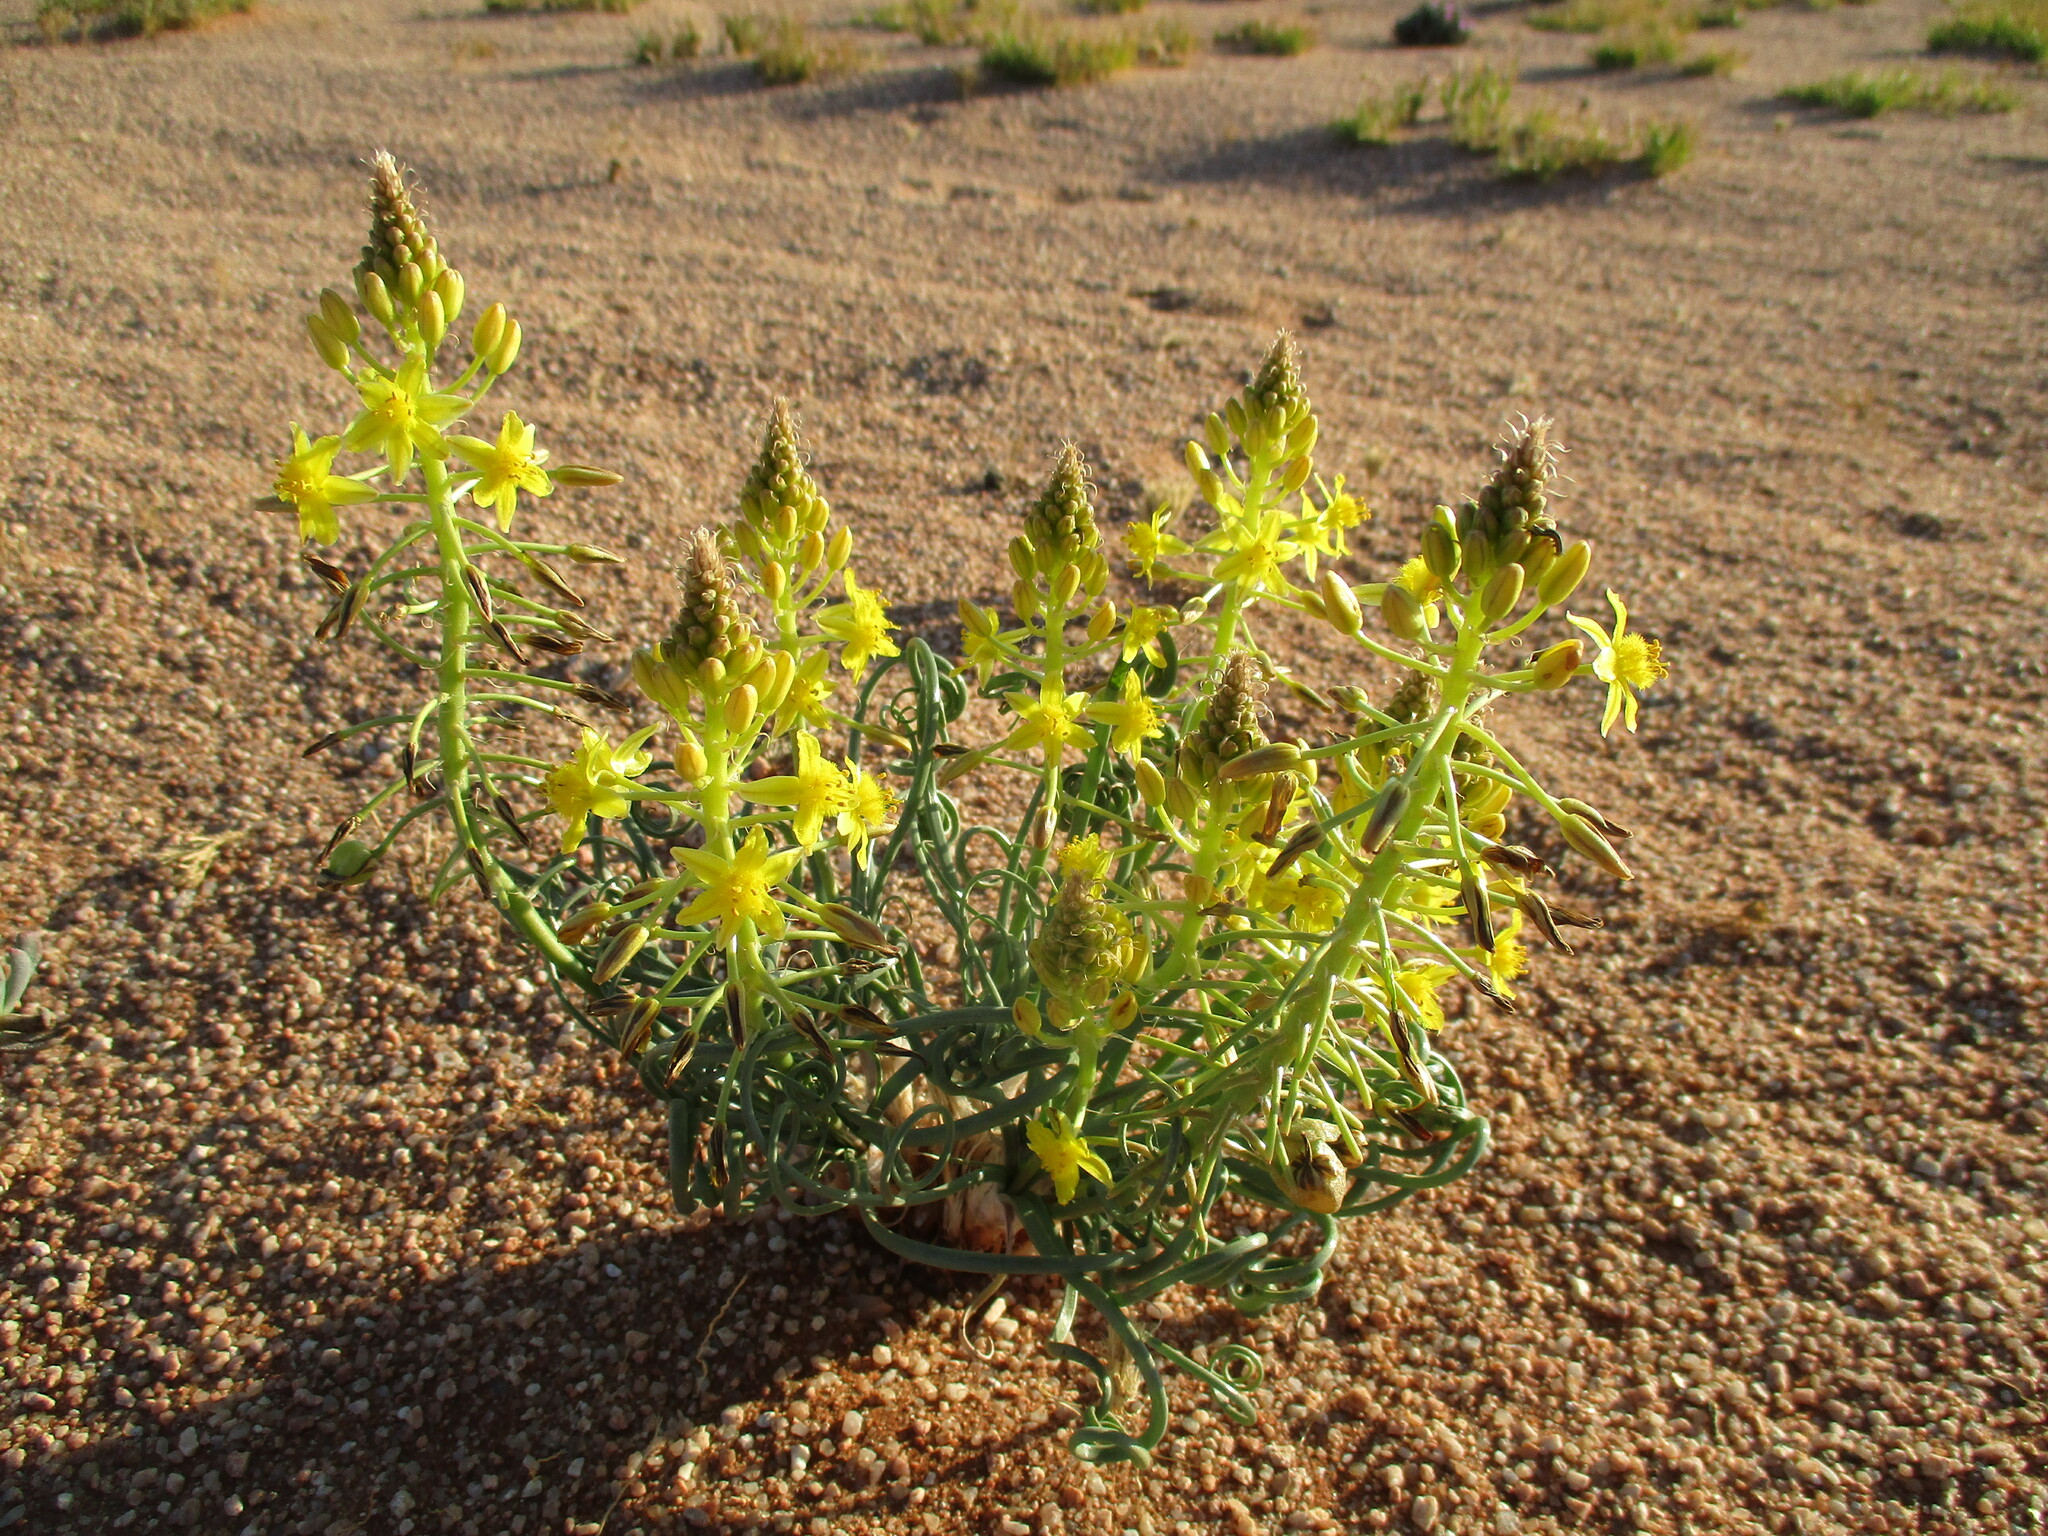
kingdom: Plantae
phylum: Tracheophyta
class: Liliopsida
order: Asparagales
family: Asphodelaceae
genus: Bulbine
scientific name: Bulbine namaensis
